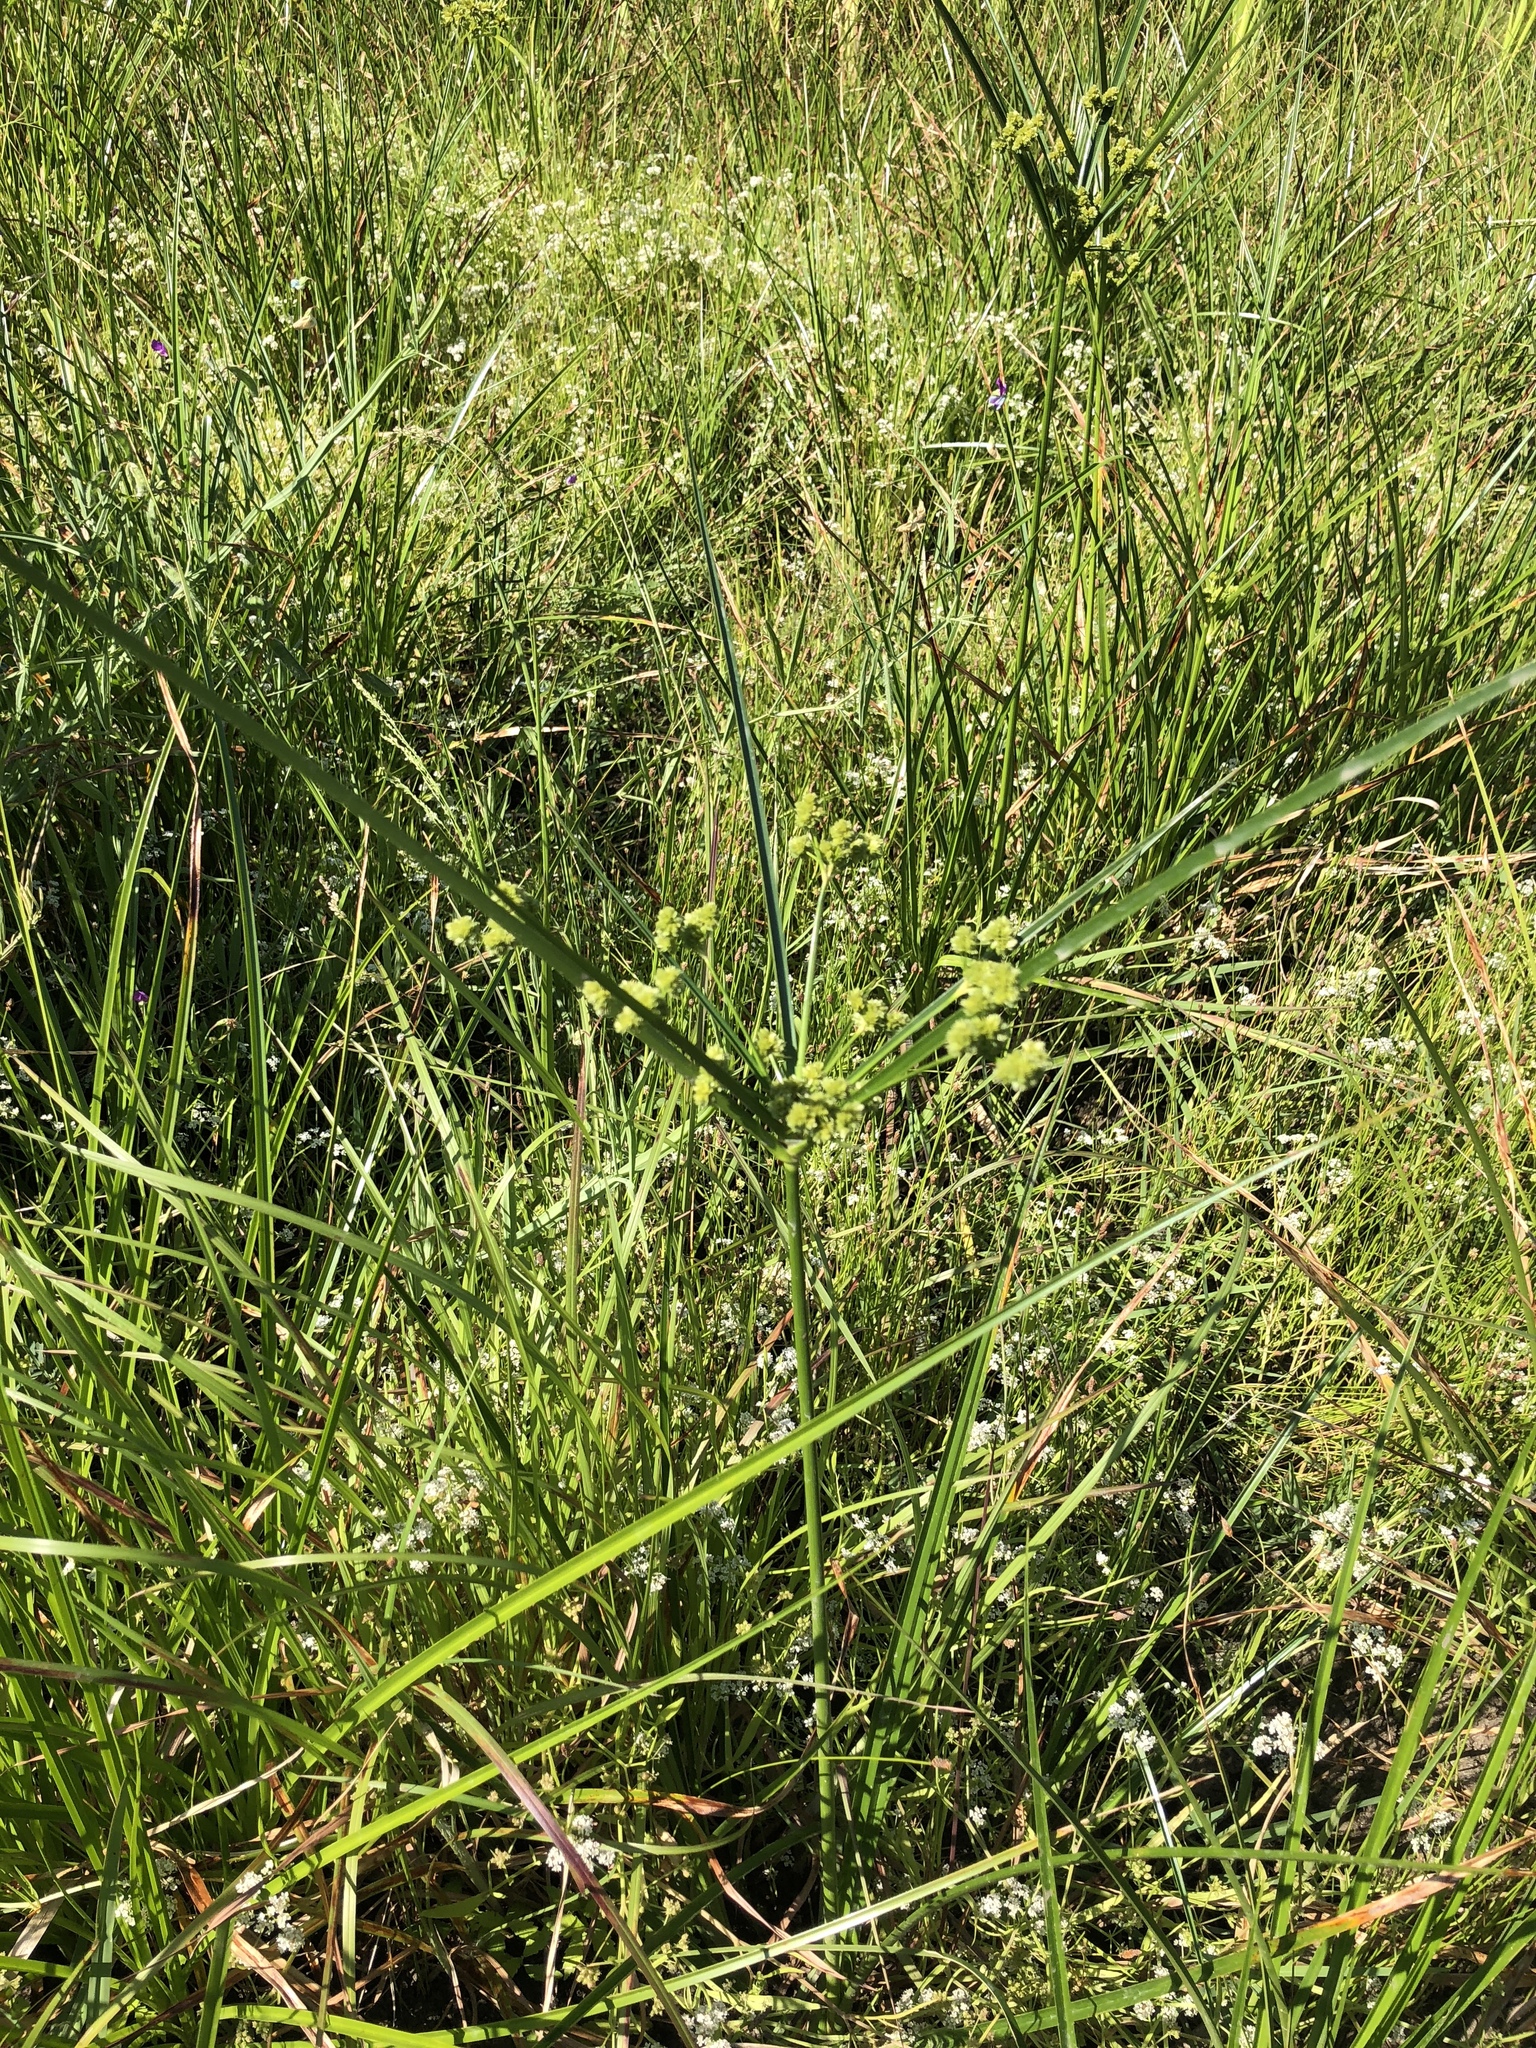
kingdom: Plantae
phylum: Tracheophyta
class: Liliopsida
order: Poales
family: Cyperaceae
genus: Cyperus
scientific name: Cyperus entrerianus
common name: Woodrush flatsedge
